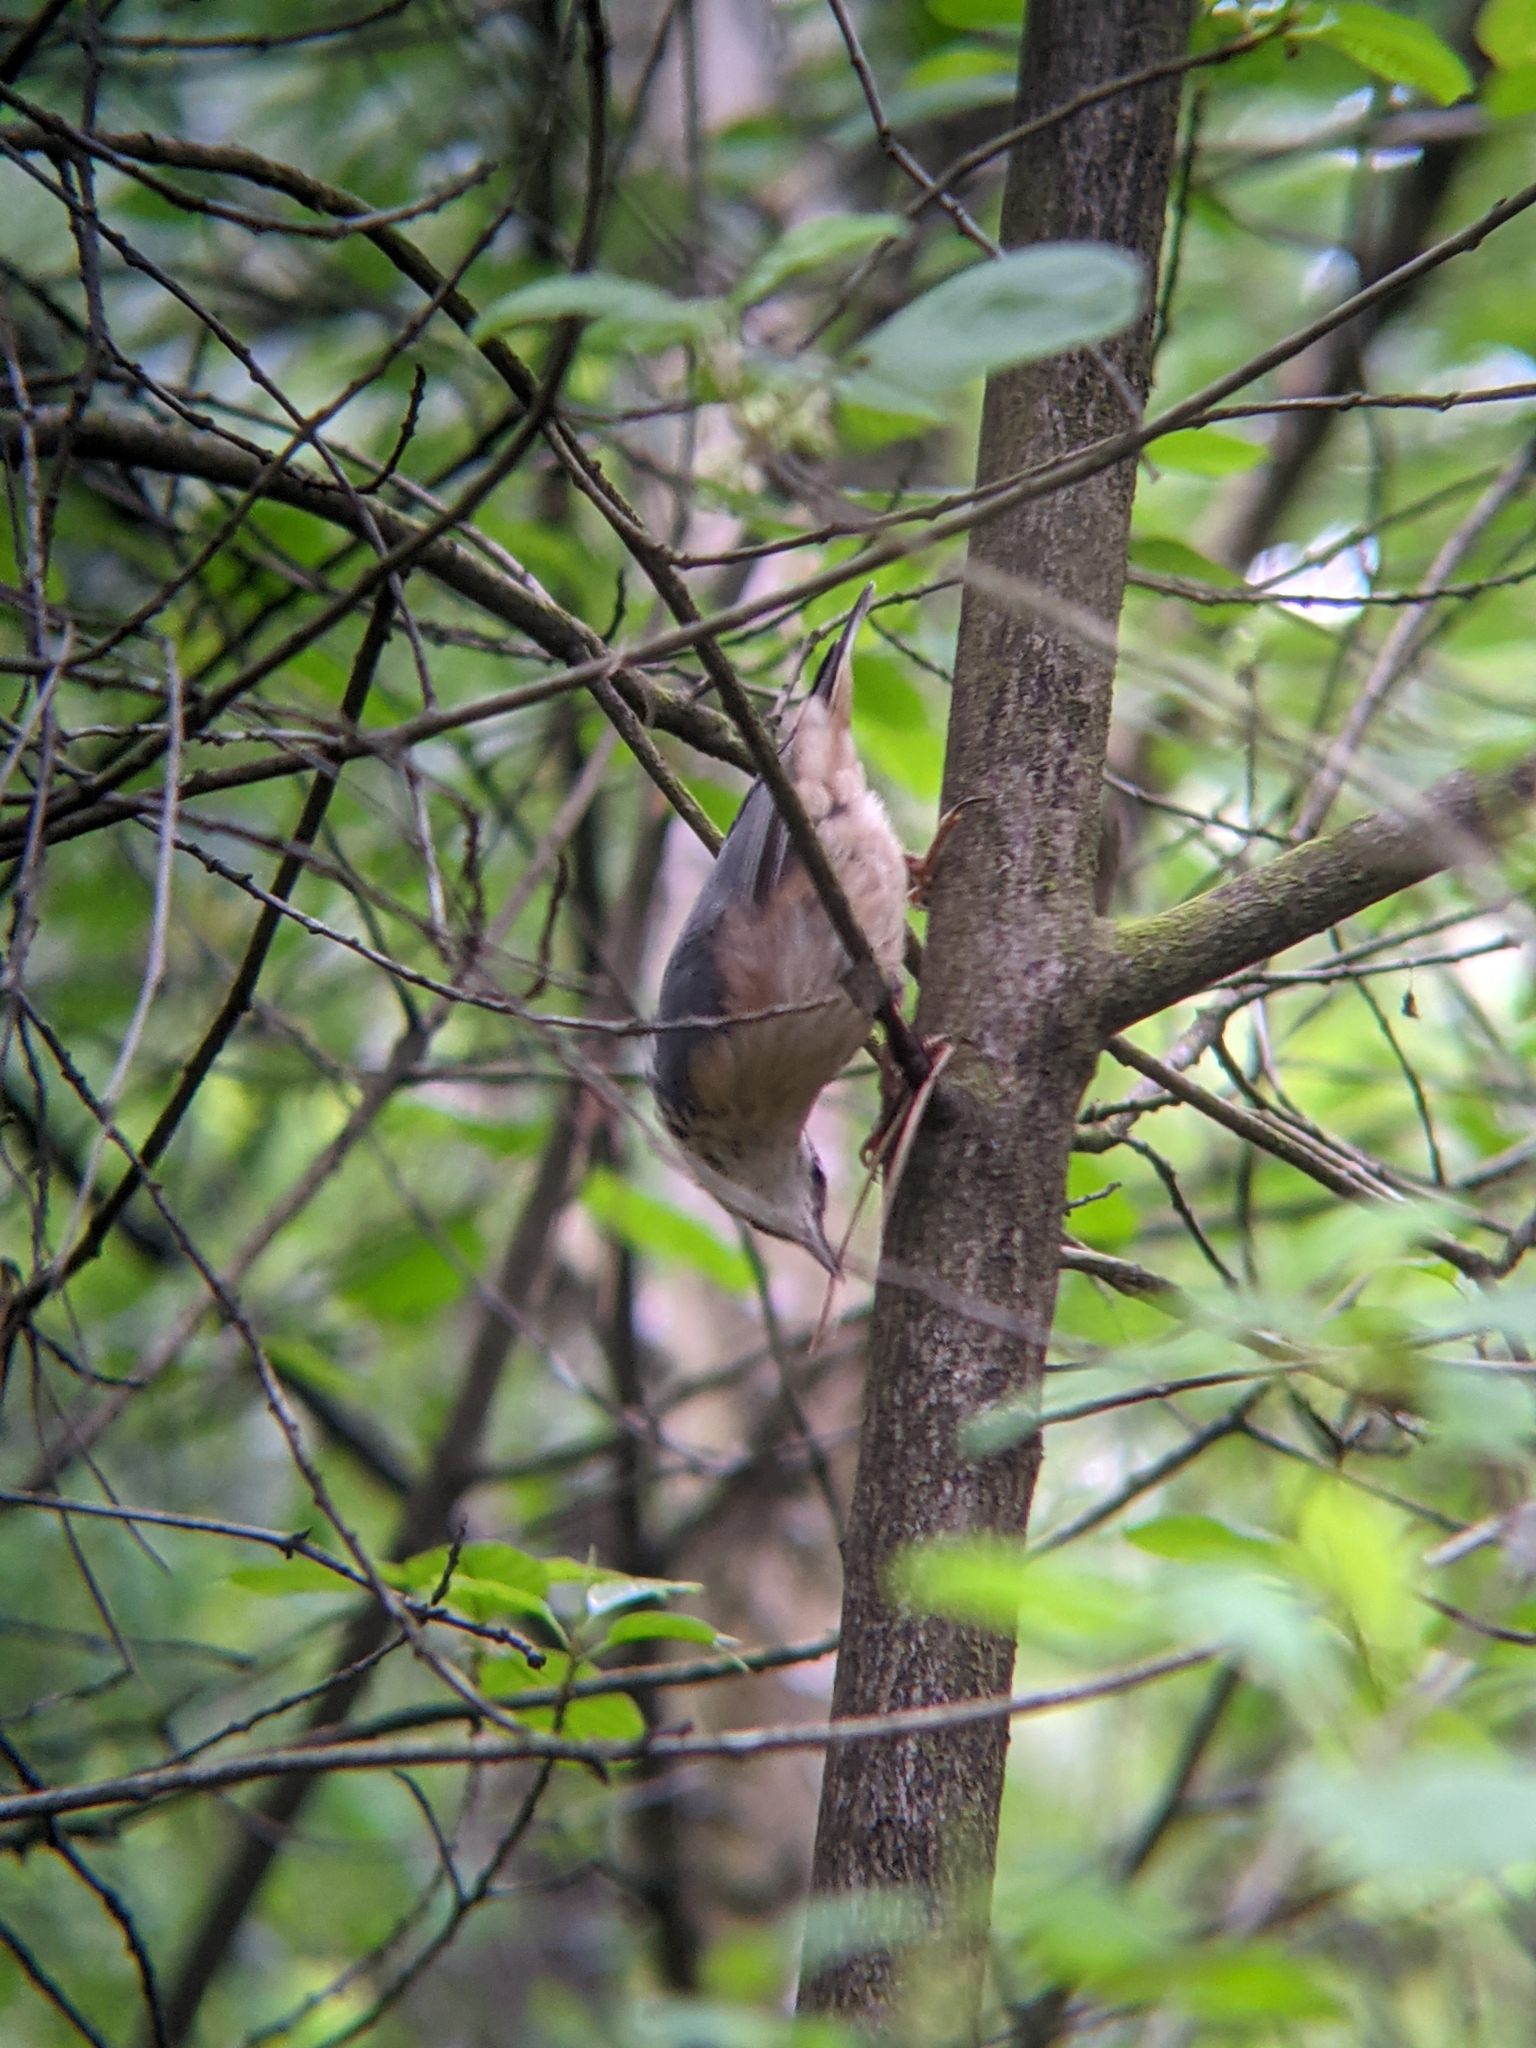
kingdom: Animalia
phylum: Chordata
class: Aves
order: Passeriformes
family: Sittidae
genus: Sitta
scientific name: Sitta europaea
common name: Eurasian nuthatch
